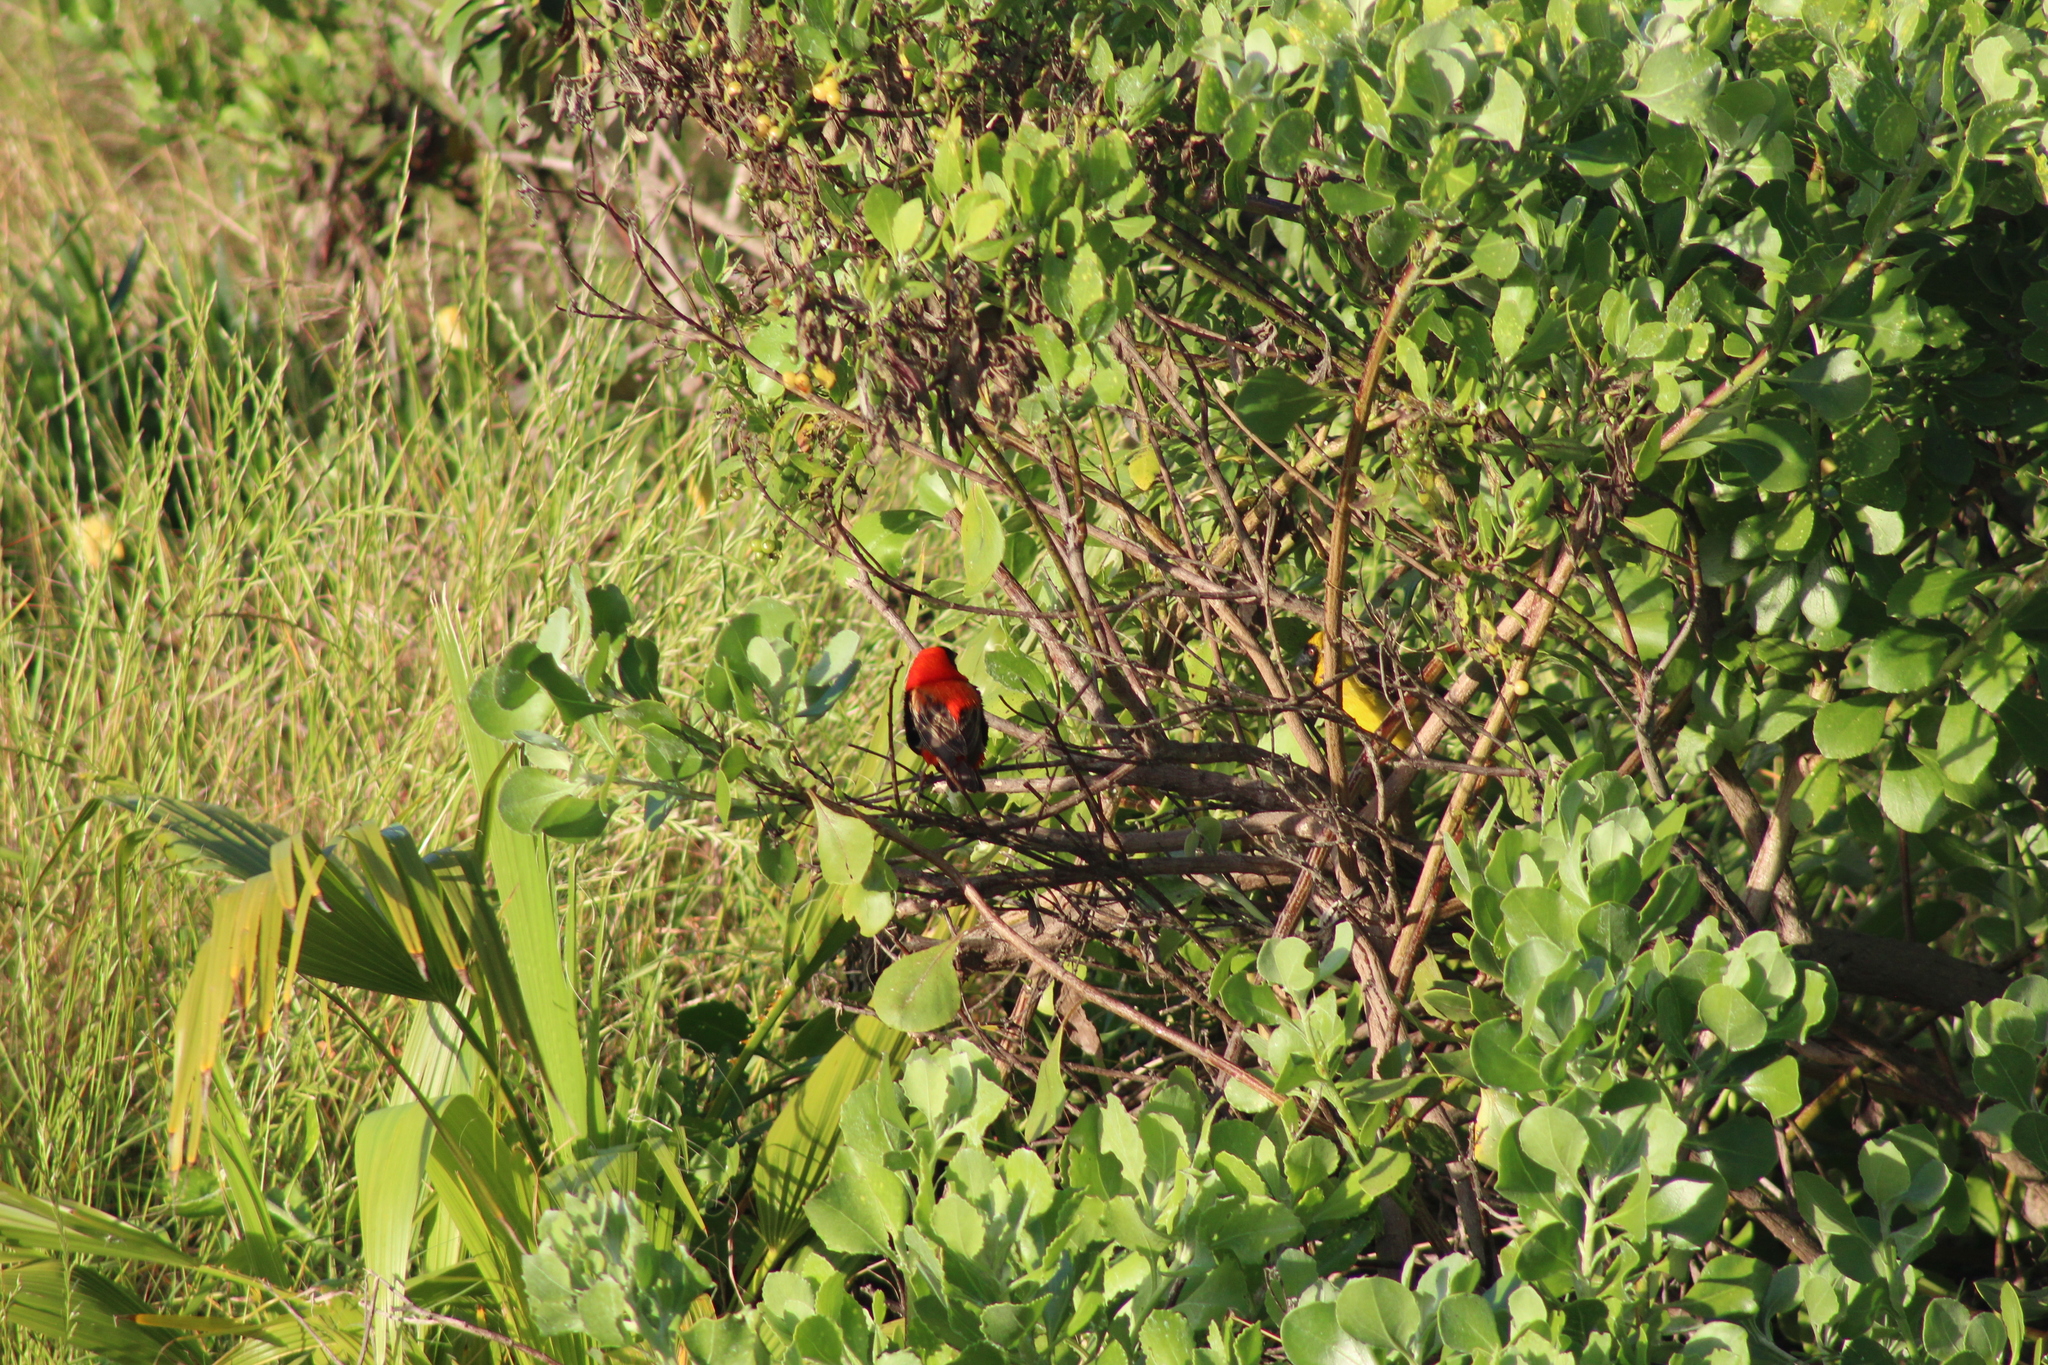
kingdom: Animalia
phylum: Chordata
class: Aves
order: Passeriformes
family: Ploceidae
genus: Euplectes
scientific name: Euplectes orix
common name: Southern red bishop
